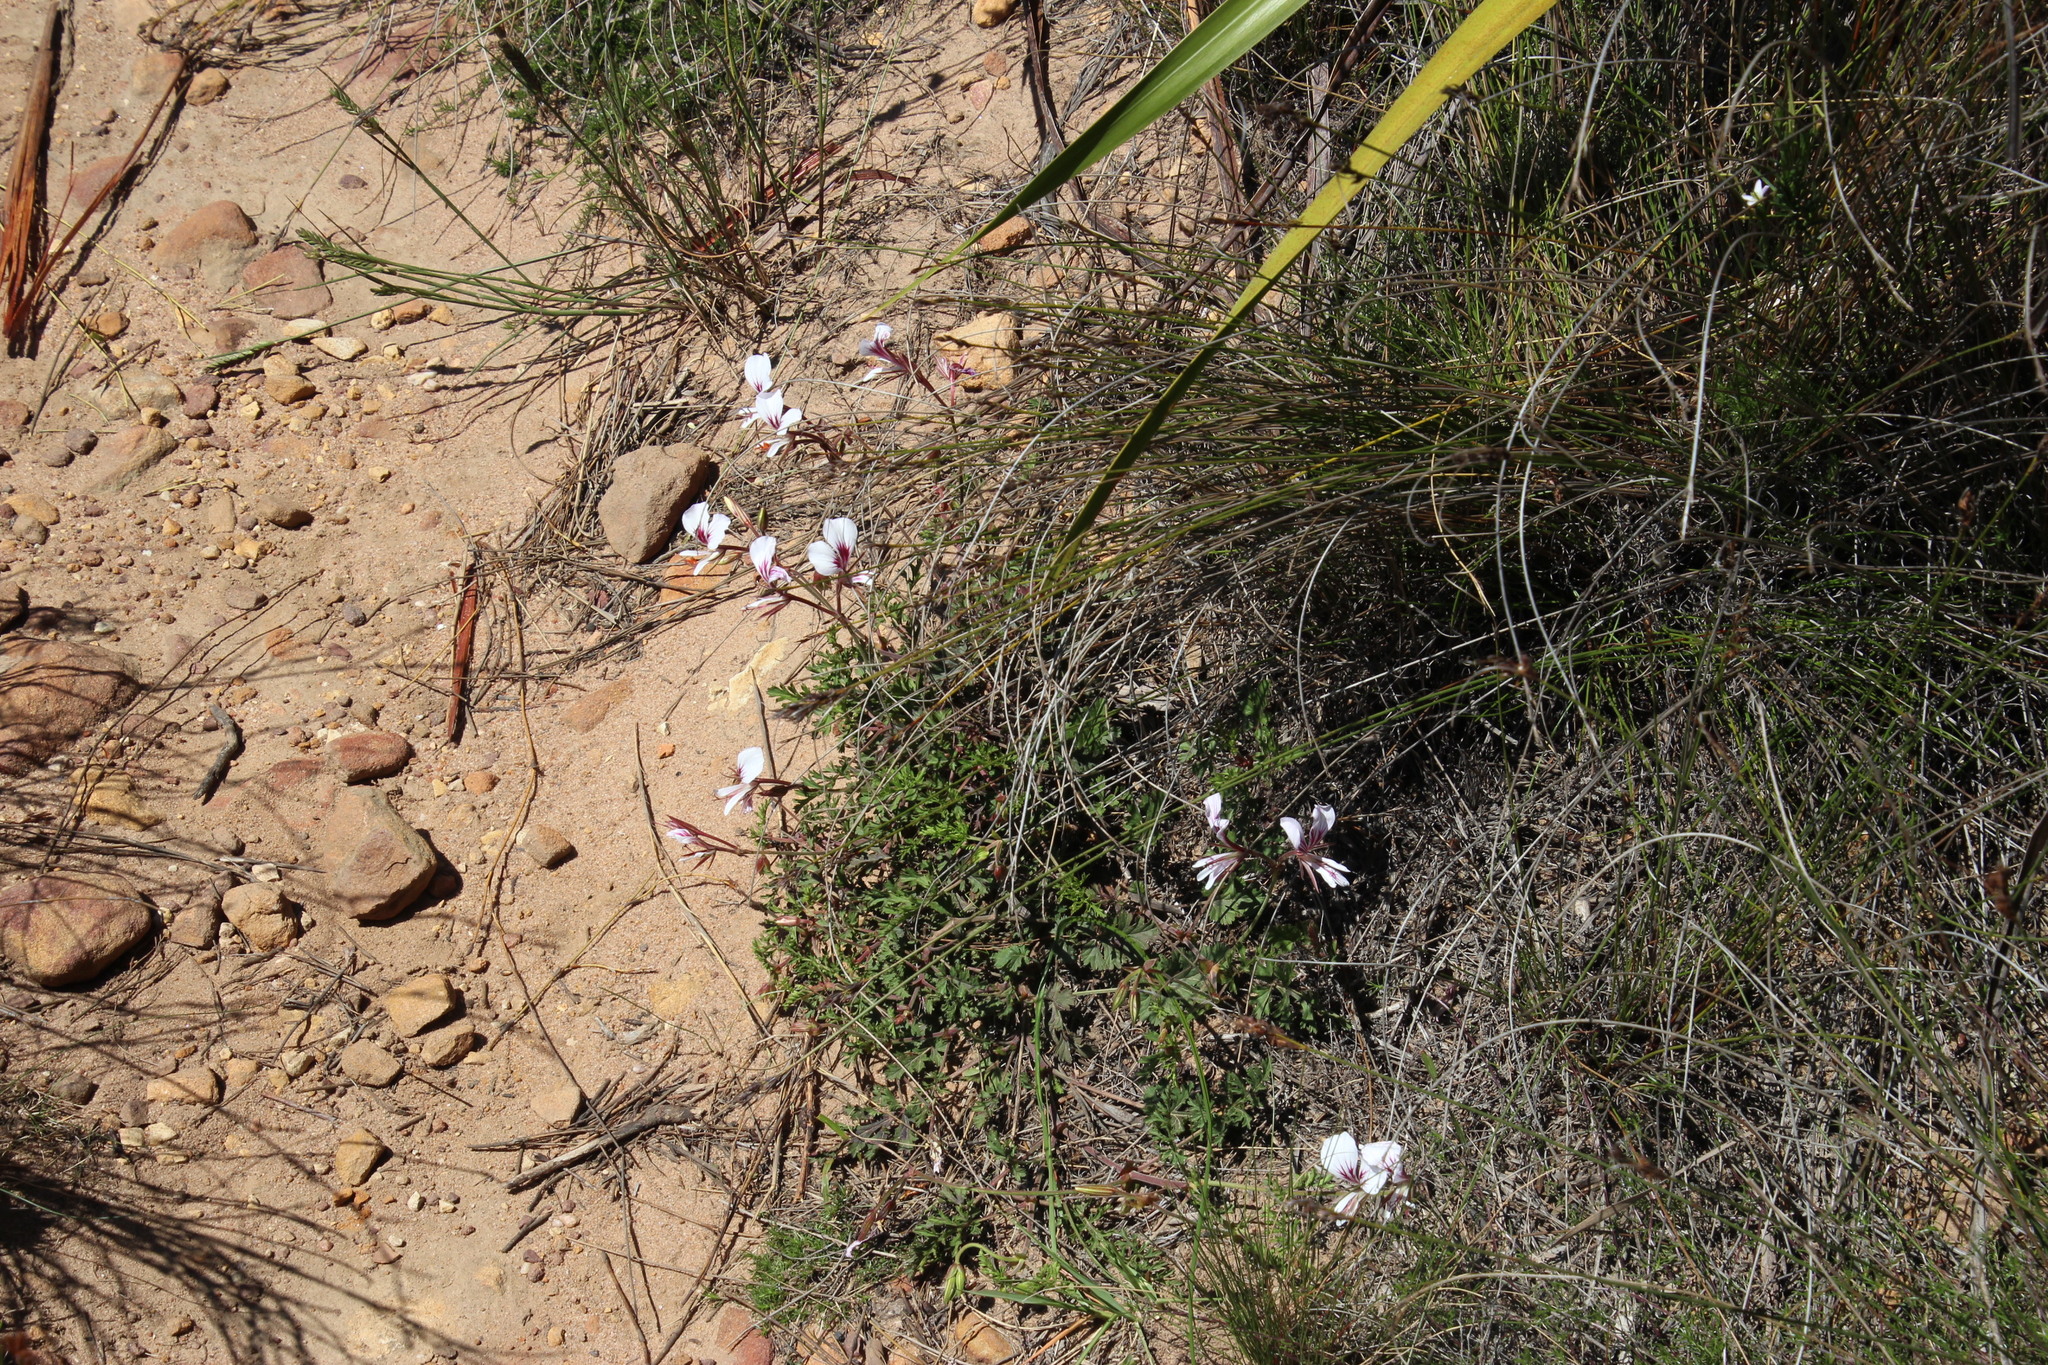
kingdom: Plantae
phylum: Tracheophyta
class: Magnoliopsida
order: Geraniales
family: Geraniaceae
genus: Pelargonium
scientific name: Pelargonium myrrhifolium
